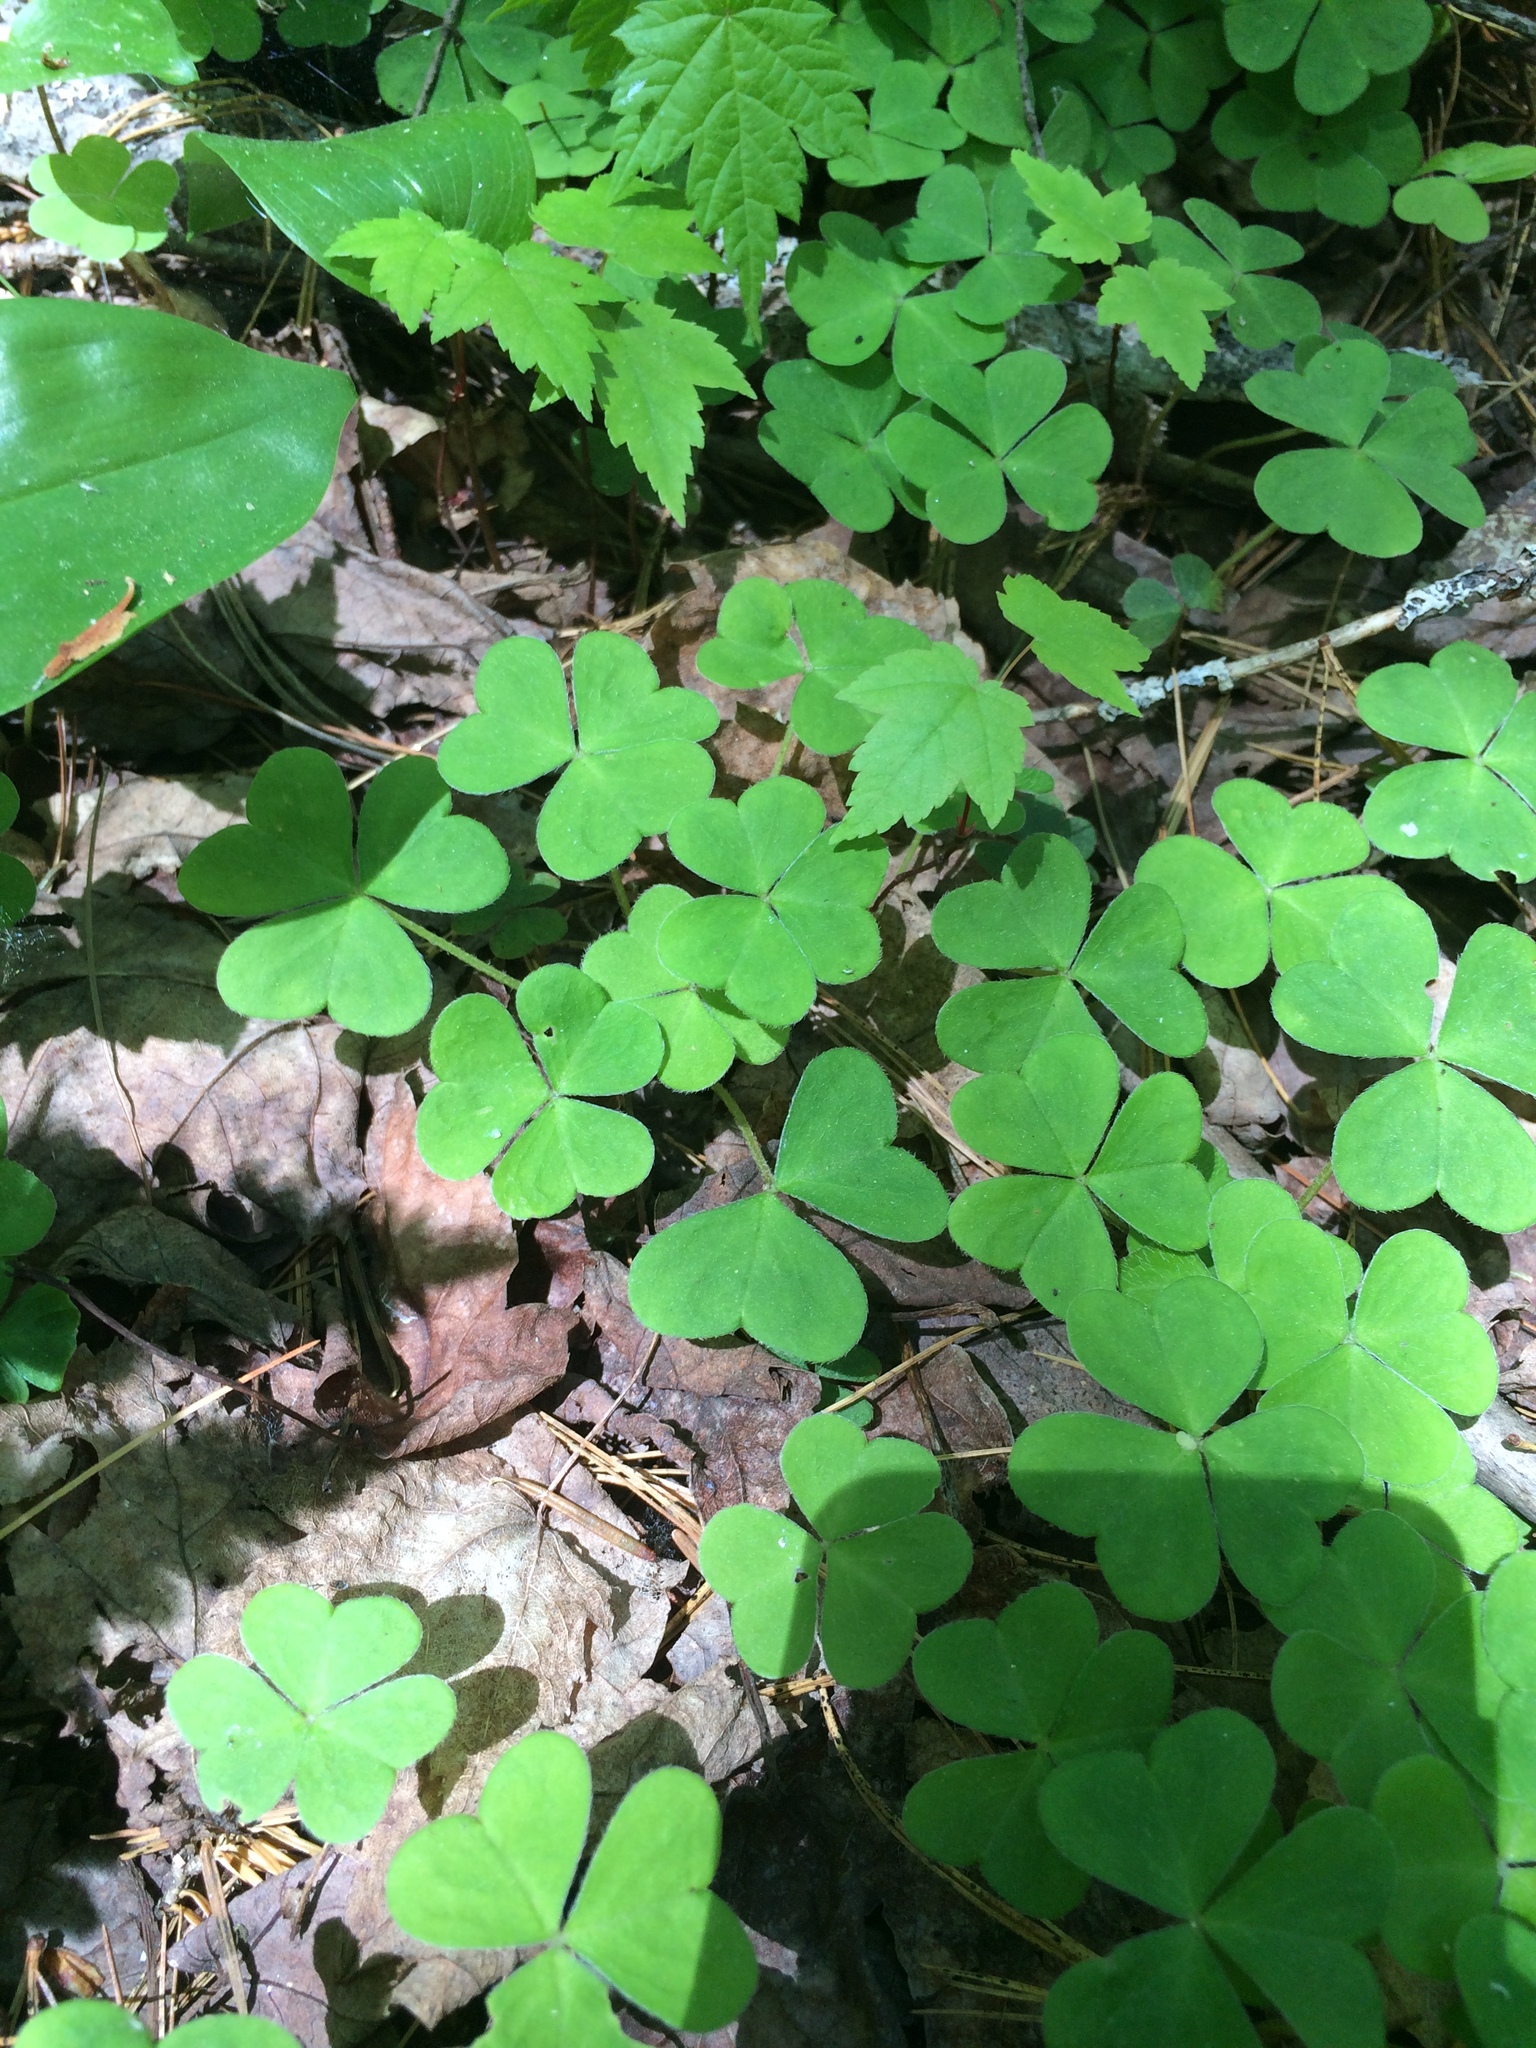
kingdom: Plantae
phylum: Tracheophyta
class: Magnoliopsida
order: Oxalidales
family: Oxalidaceae
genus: Oxalis
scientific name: Oxalis montana
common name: American wood-sorrel
